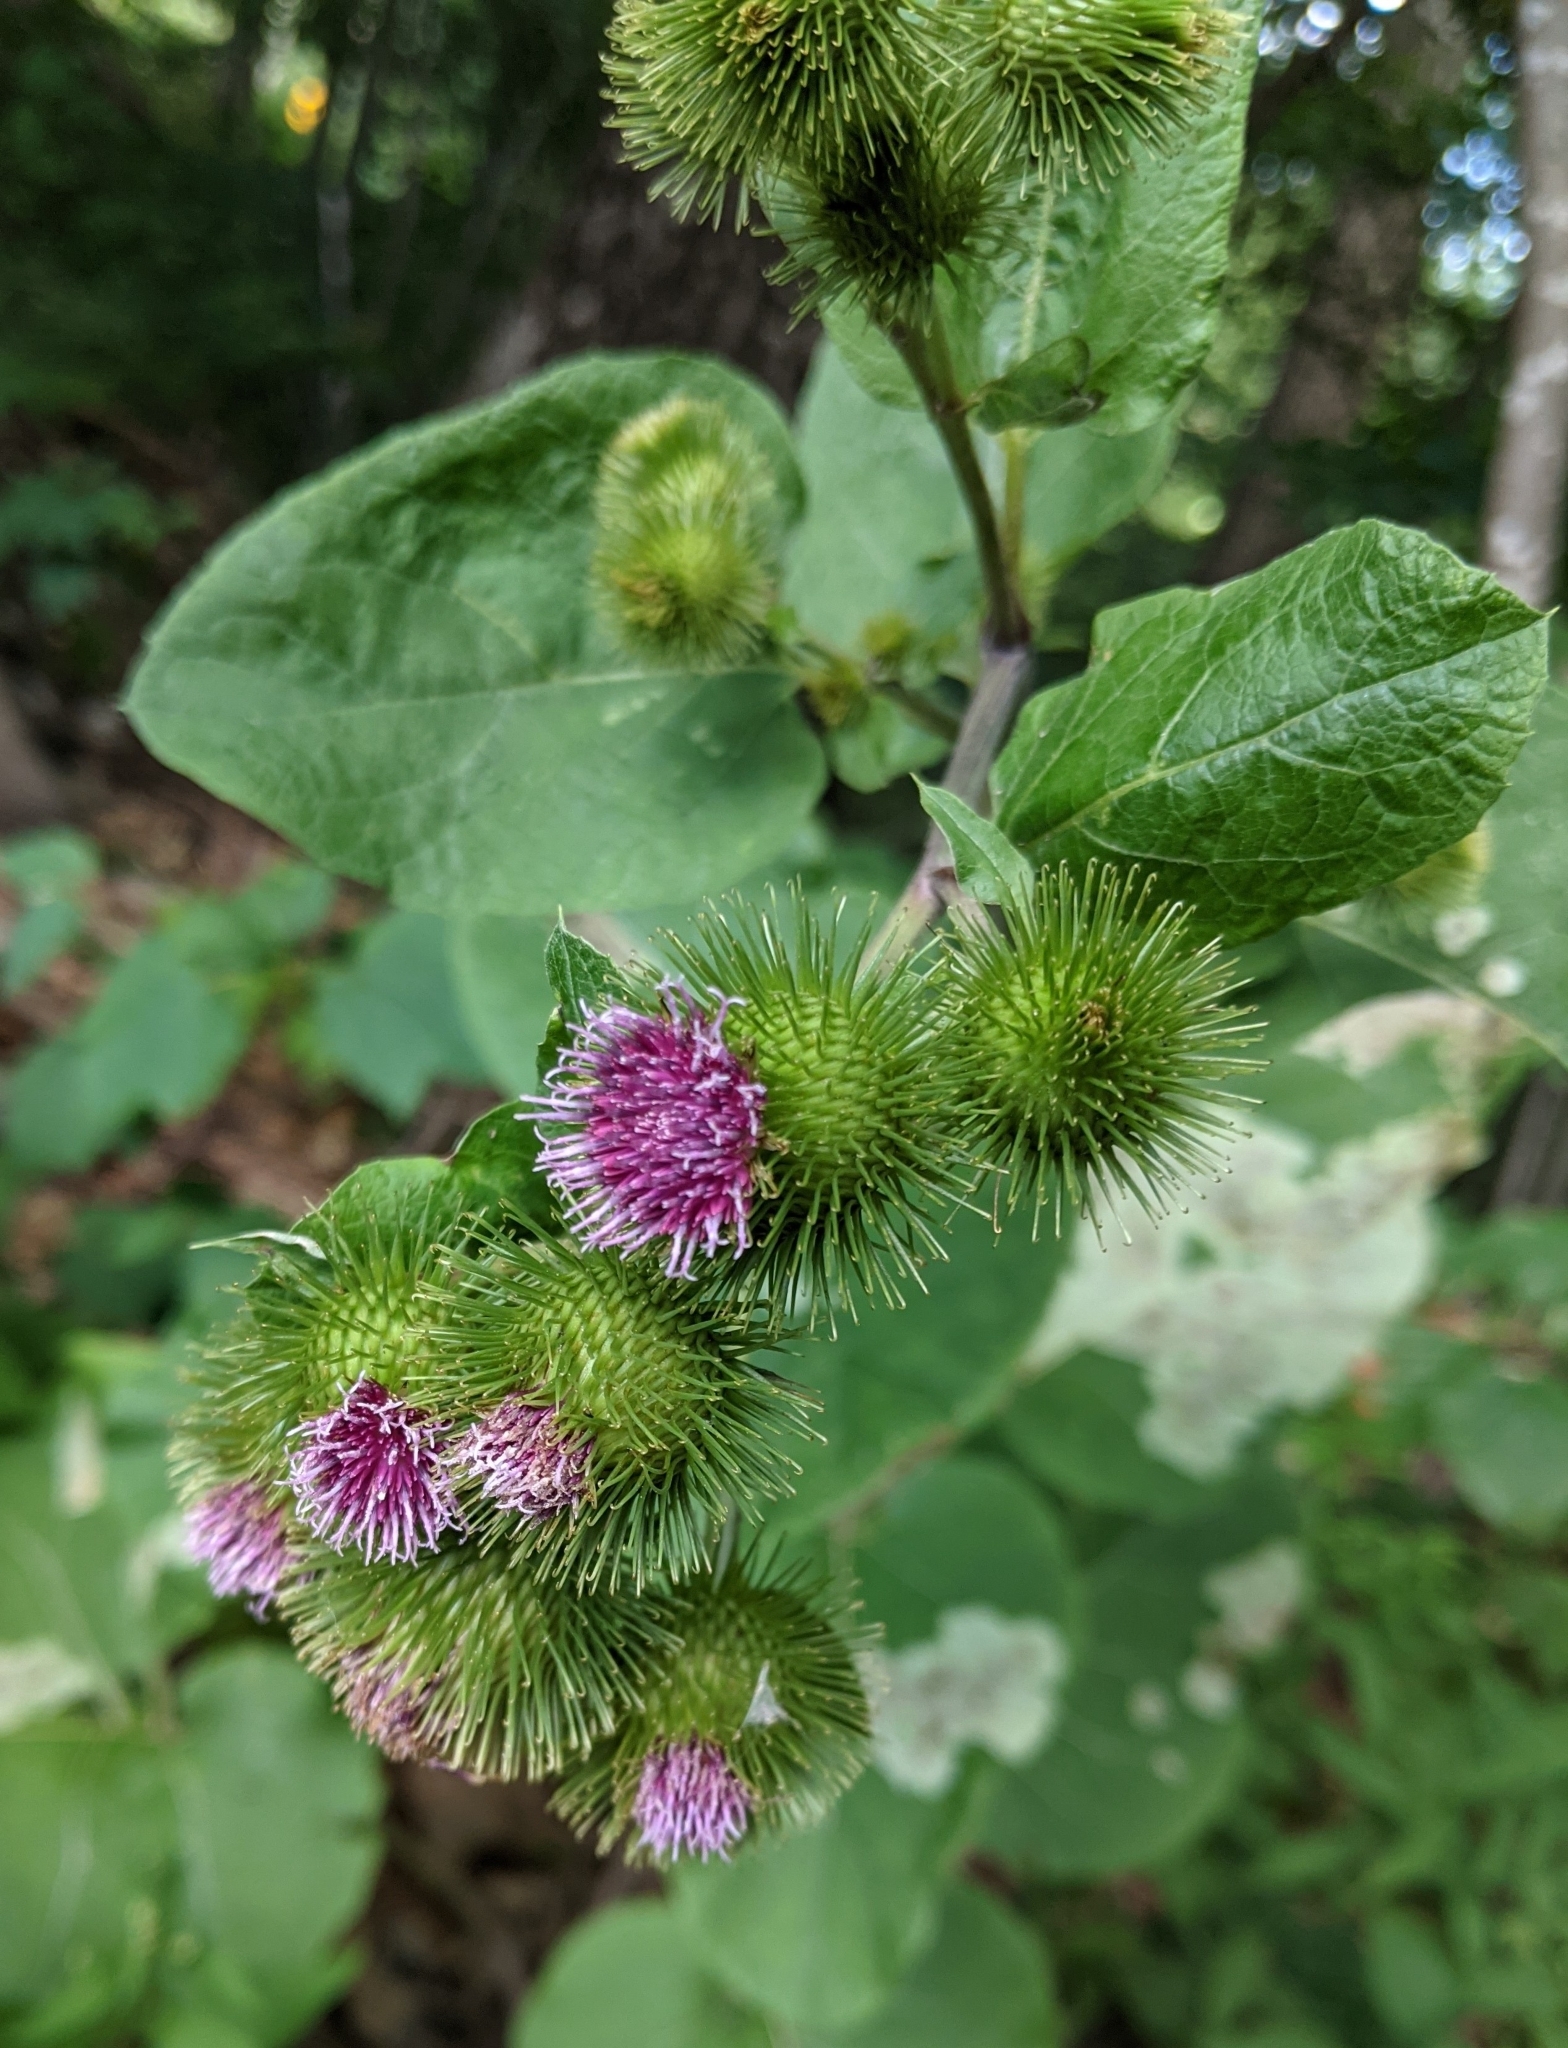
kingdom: Plantae
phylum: Tracheophyta
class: Magnoliopsida
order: Asterales
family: Asteraceae
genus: Arctium
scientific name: Arctium minus
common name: Lesser burdock
